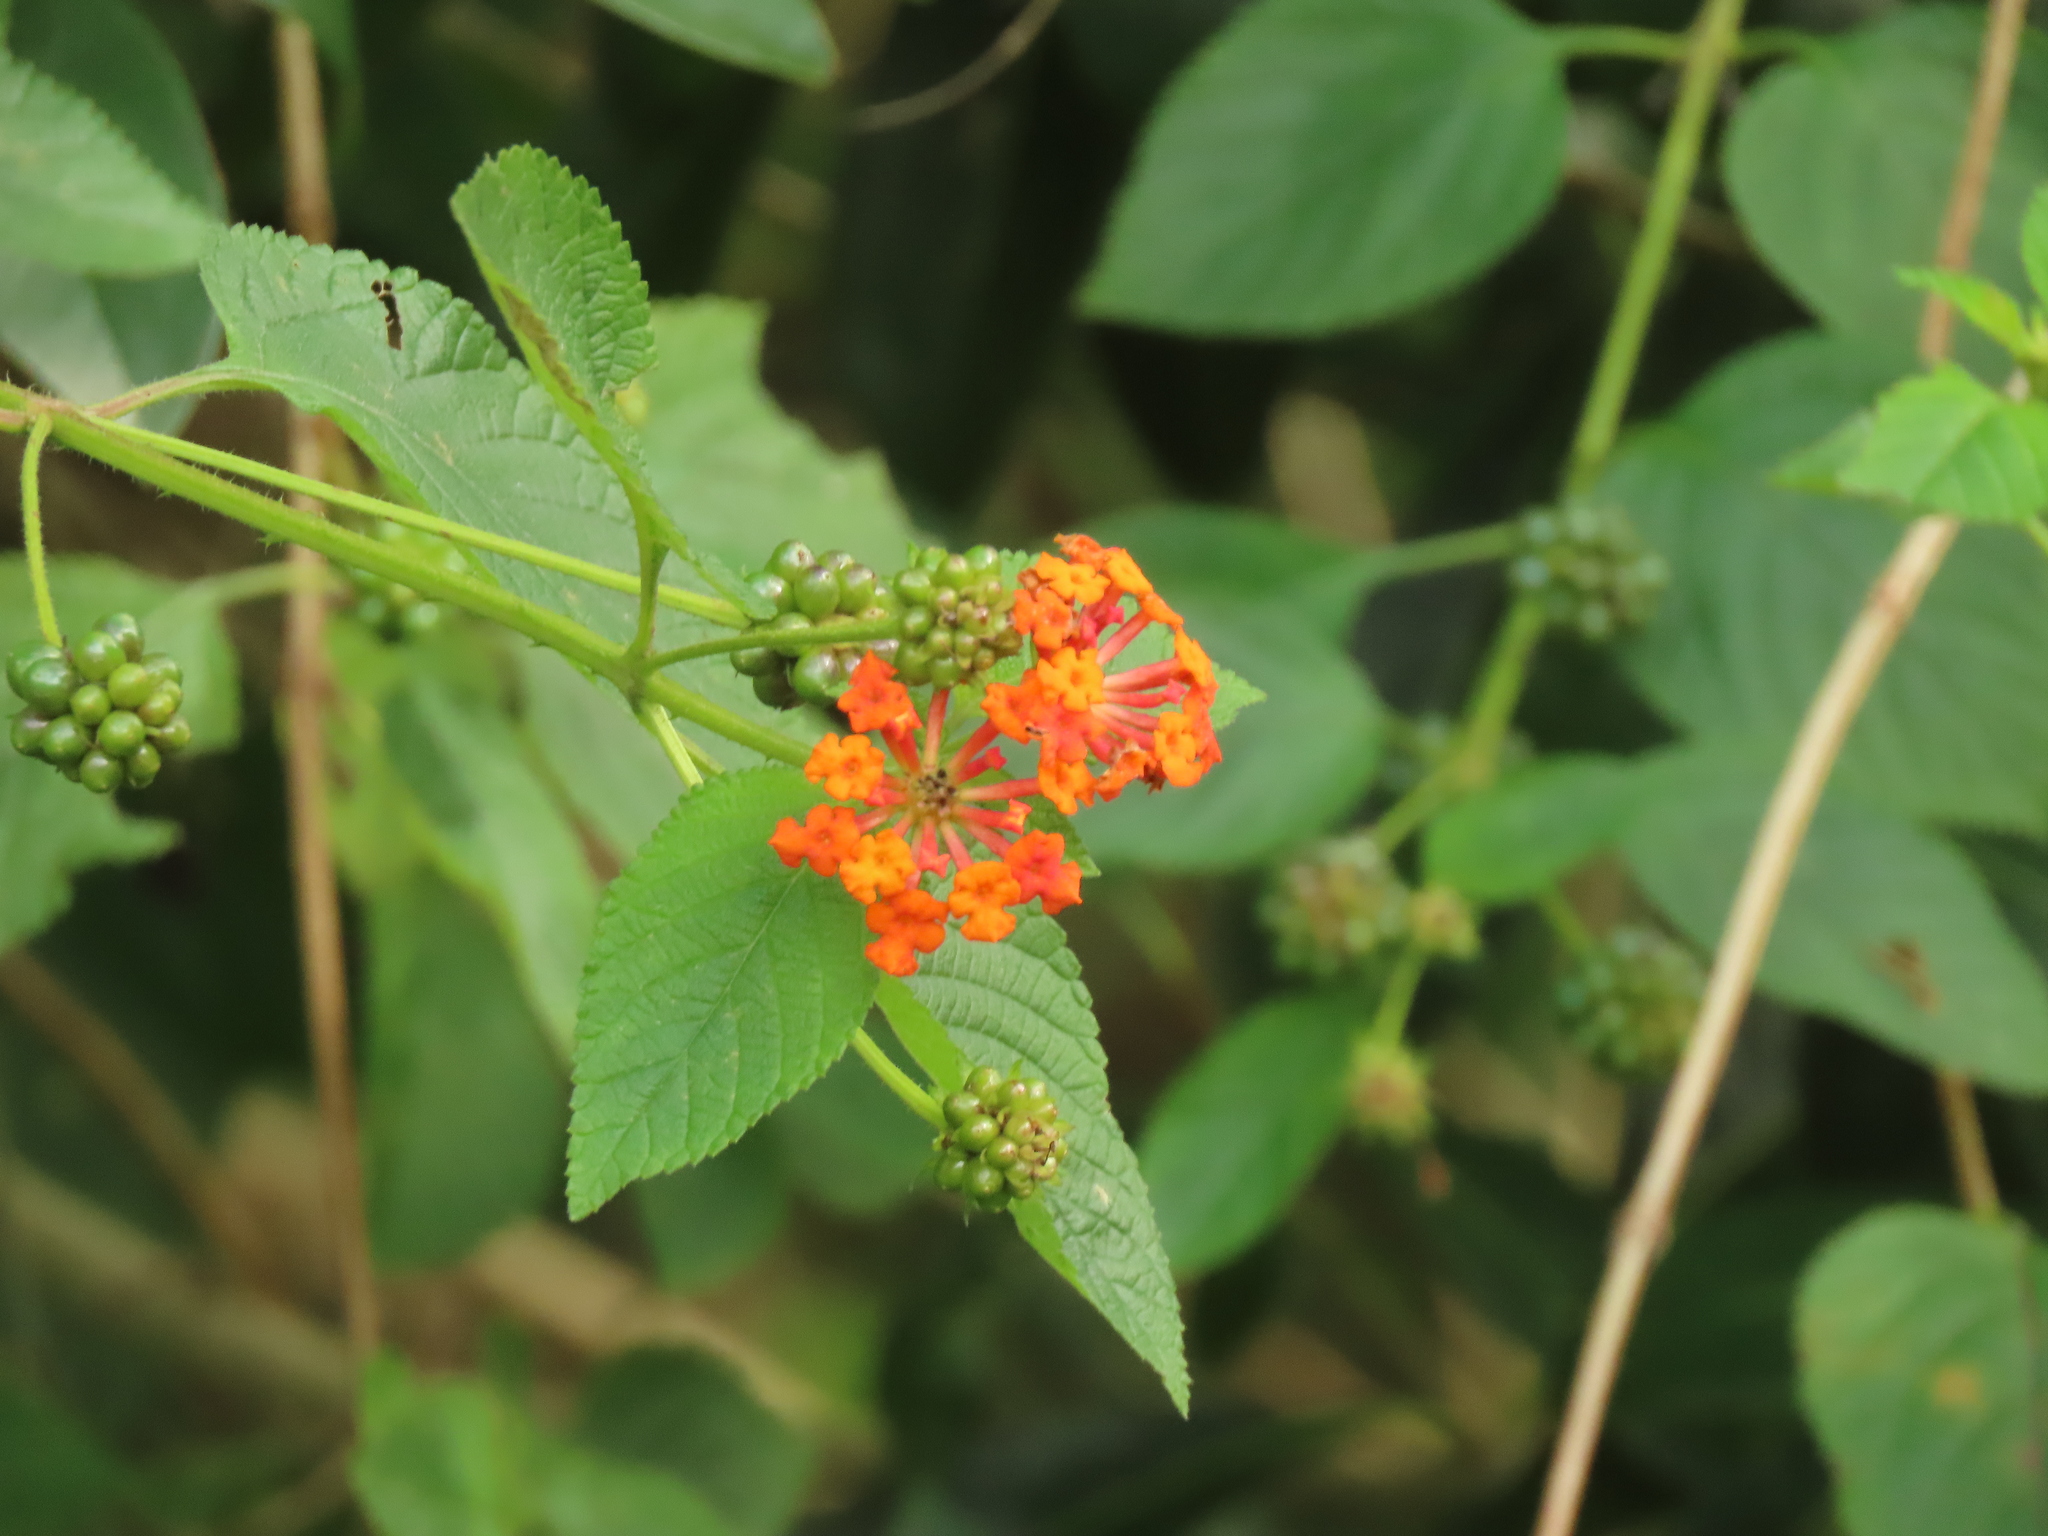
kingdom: Plantae
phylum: Tracheophyta
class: Magnoliopsida
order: Lamiales
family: Verbenaceae
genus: Lantana
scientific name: Lantana camara
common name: Lantana
